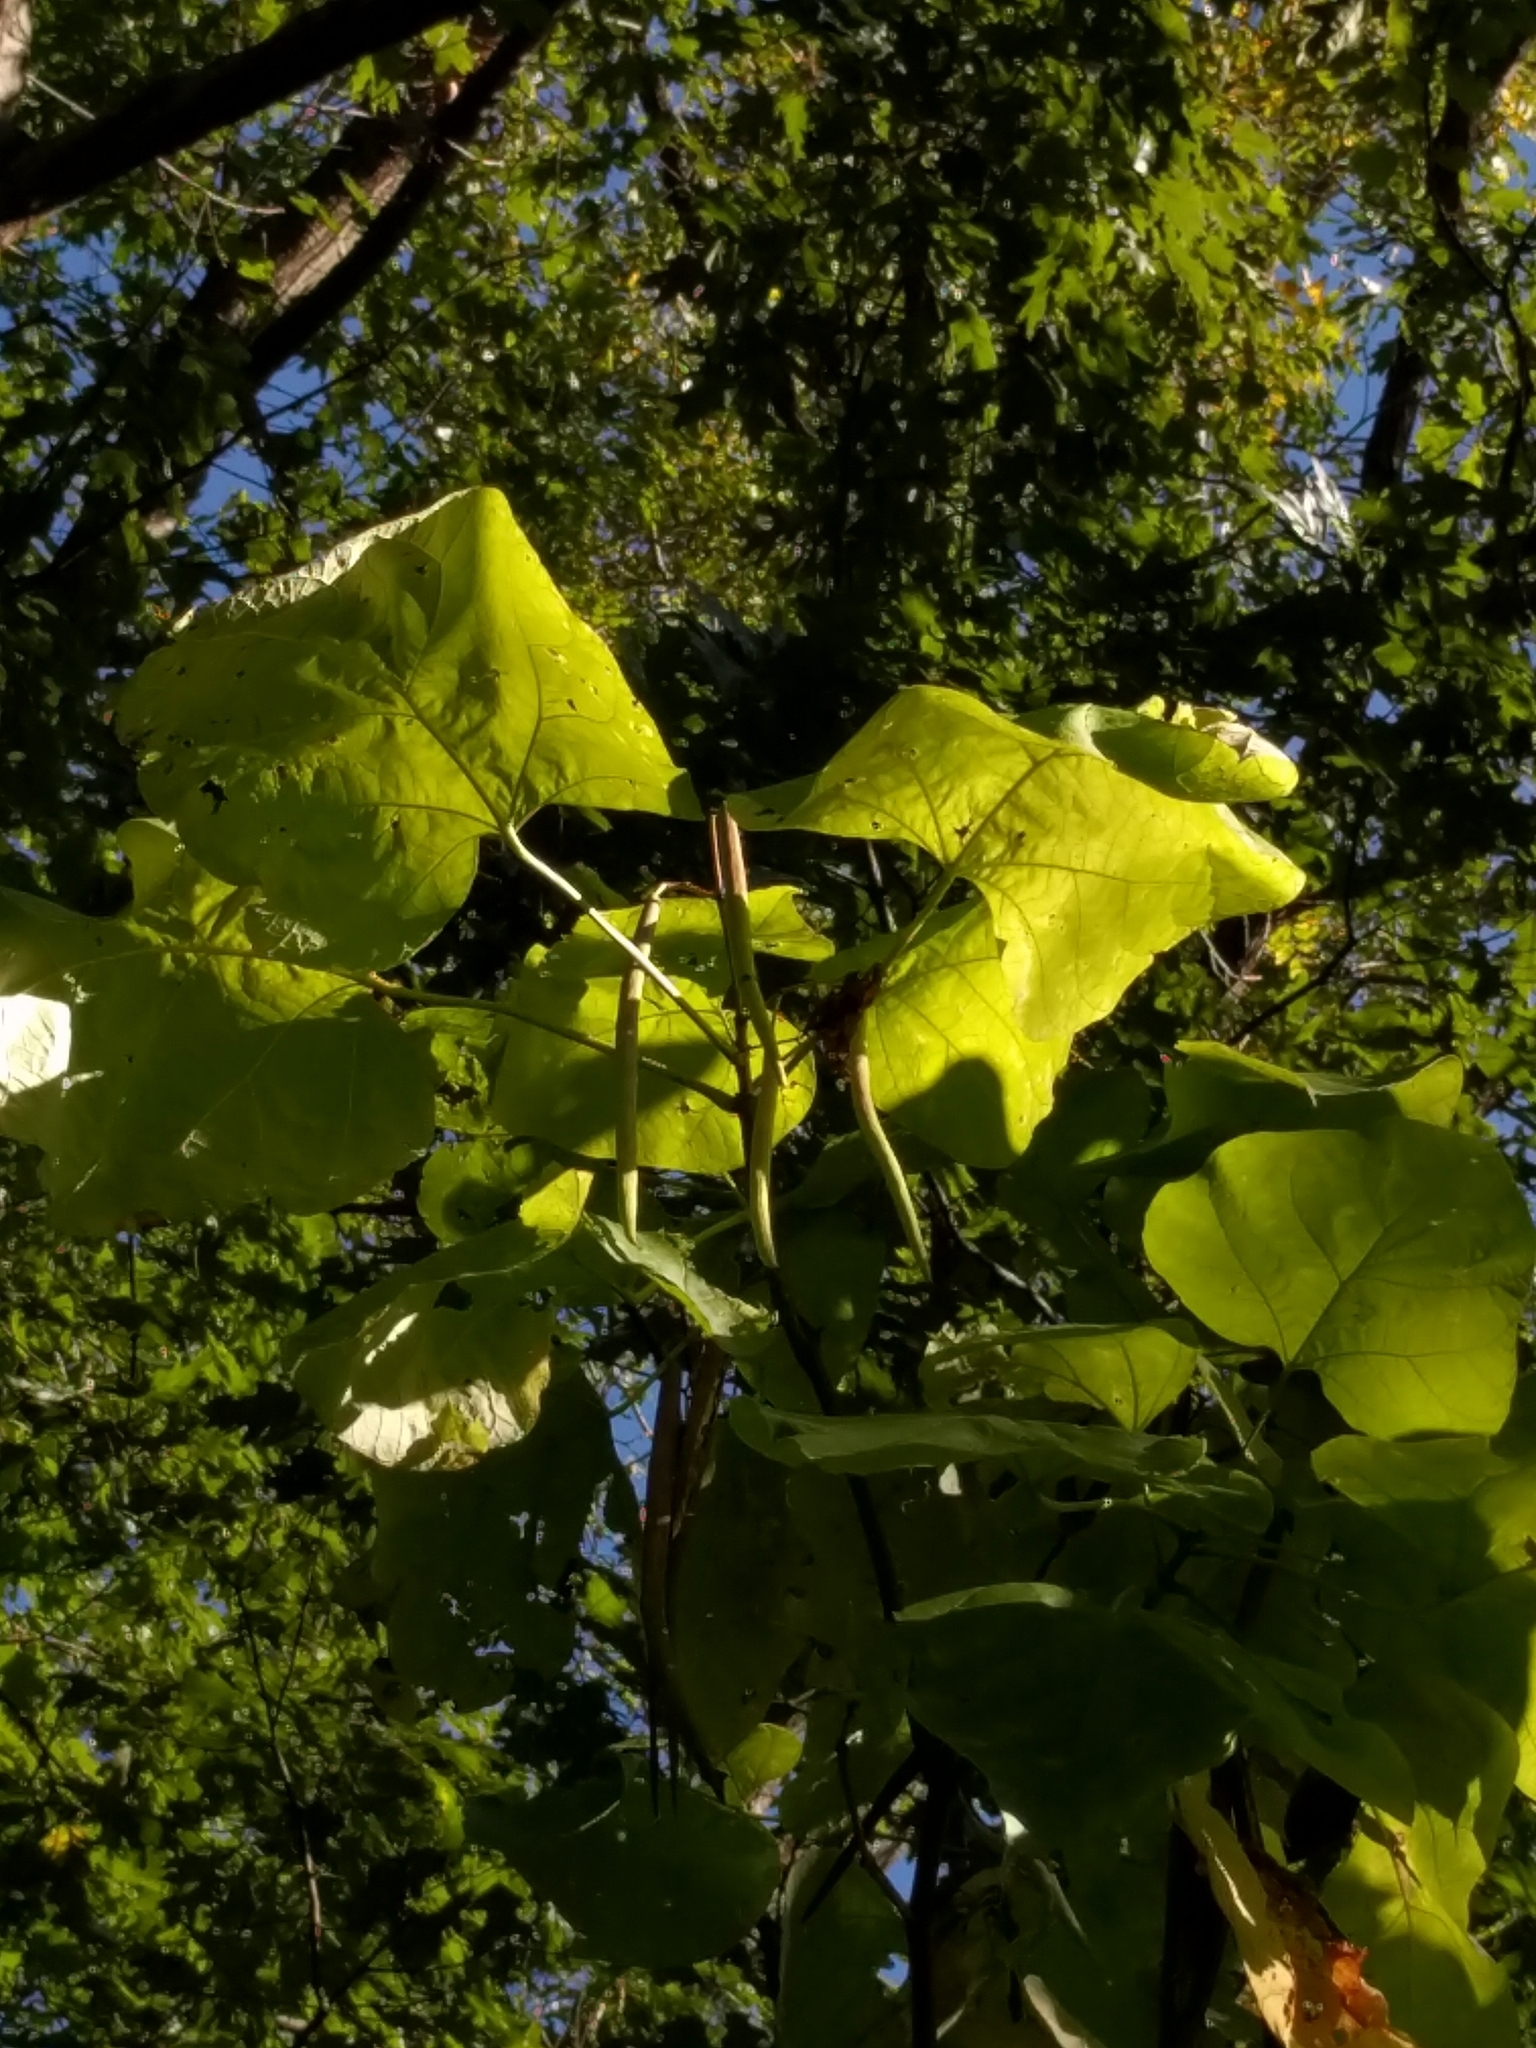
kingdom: Plantae
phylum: Tracheophyta
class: Magnoliopsida
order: Lamiales
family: Bignoniaceae
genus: Catalpa
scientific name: Catalpa speciosa
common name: Northern catalpa
